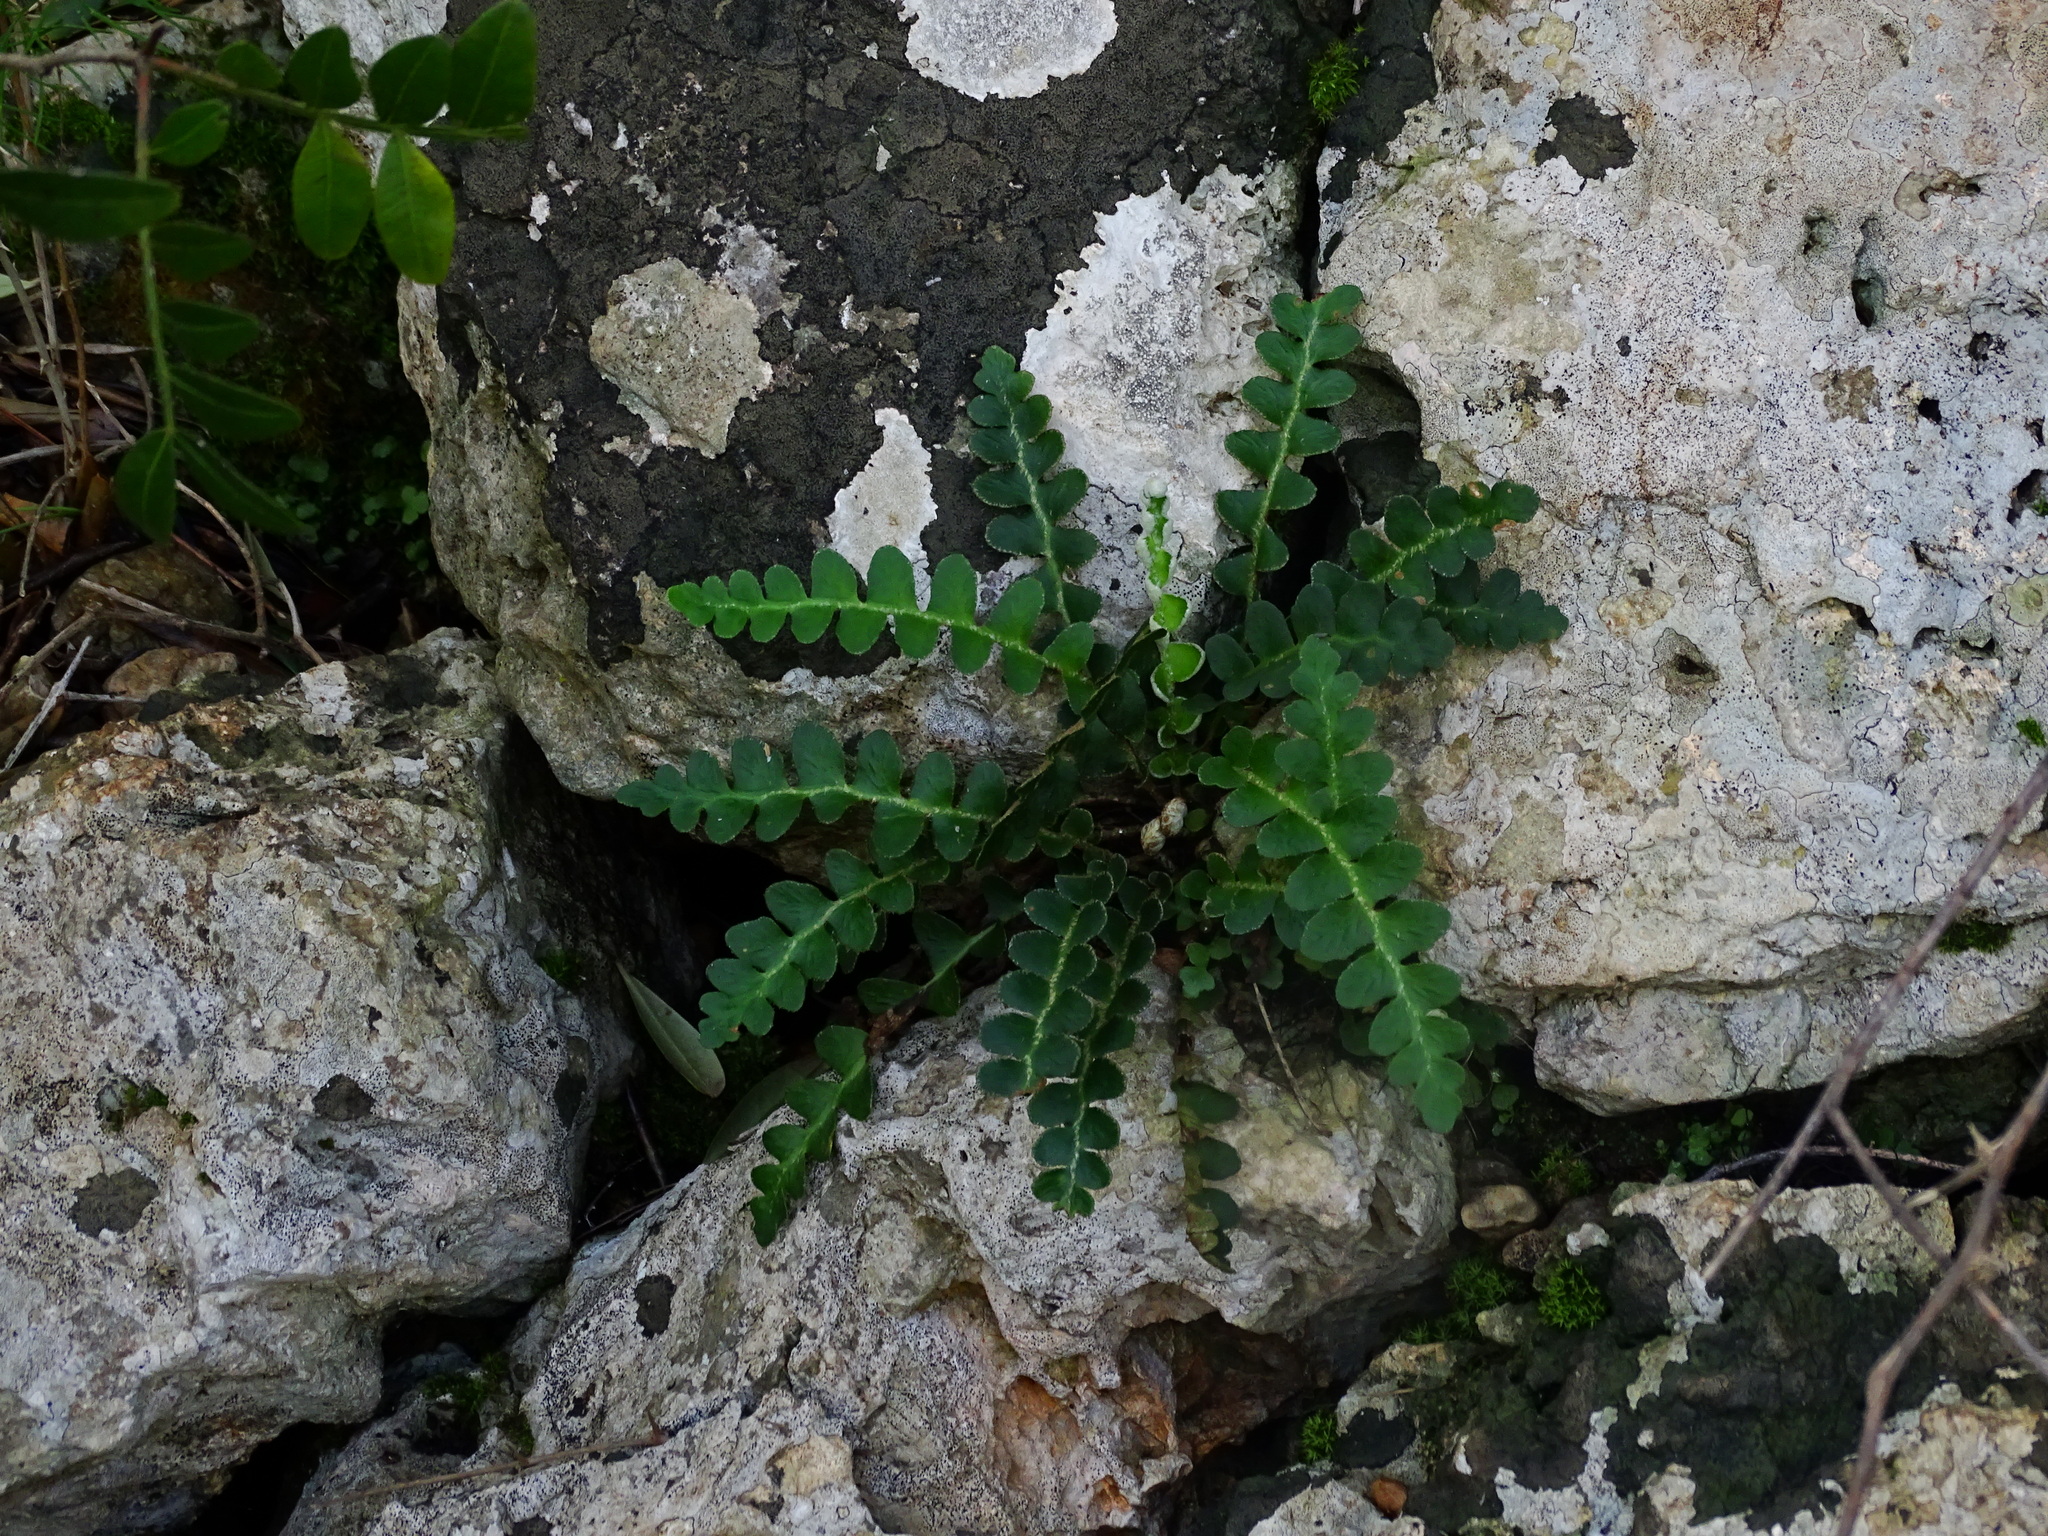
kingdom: Plantae
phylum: Tracheophyta
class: Polypodiopsida
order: Polypodiales
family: Aspleniaceae
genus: Asplenium
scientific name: Asplenium ceterach
